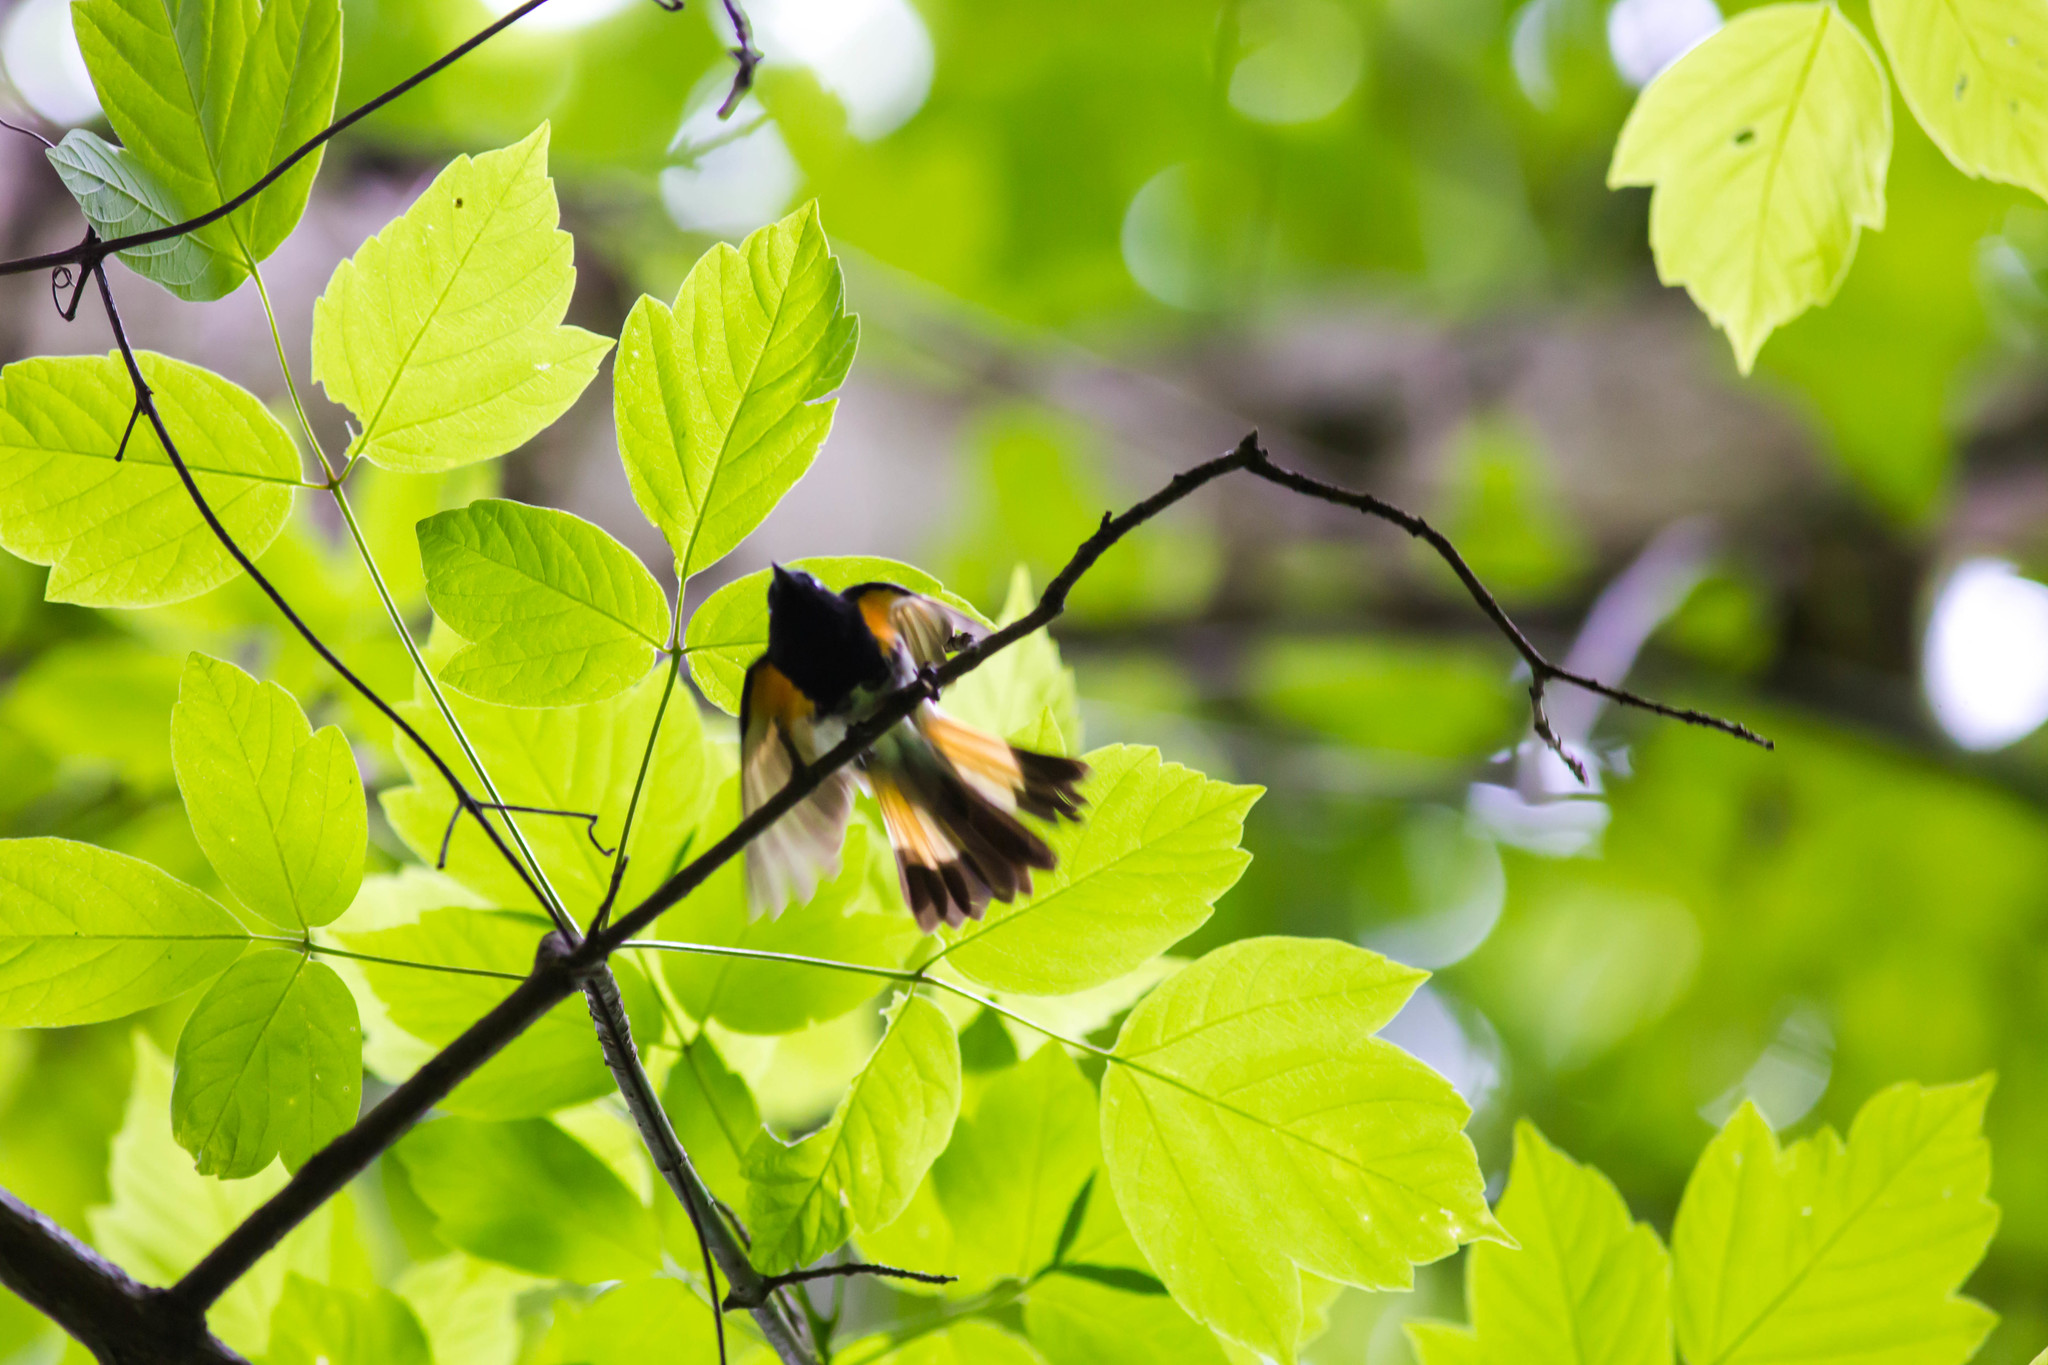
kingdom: Animalia
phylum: Chordata
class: Aves
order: Passeriformes
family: Parulidae
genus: Setophaga
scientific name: Setophaga ruticilla
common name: American redstart
